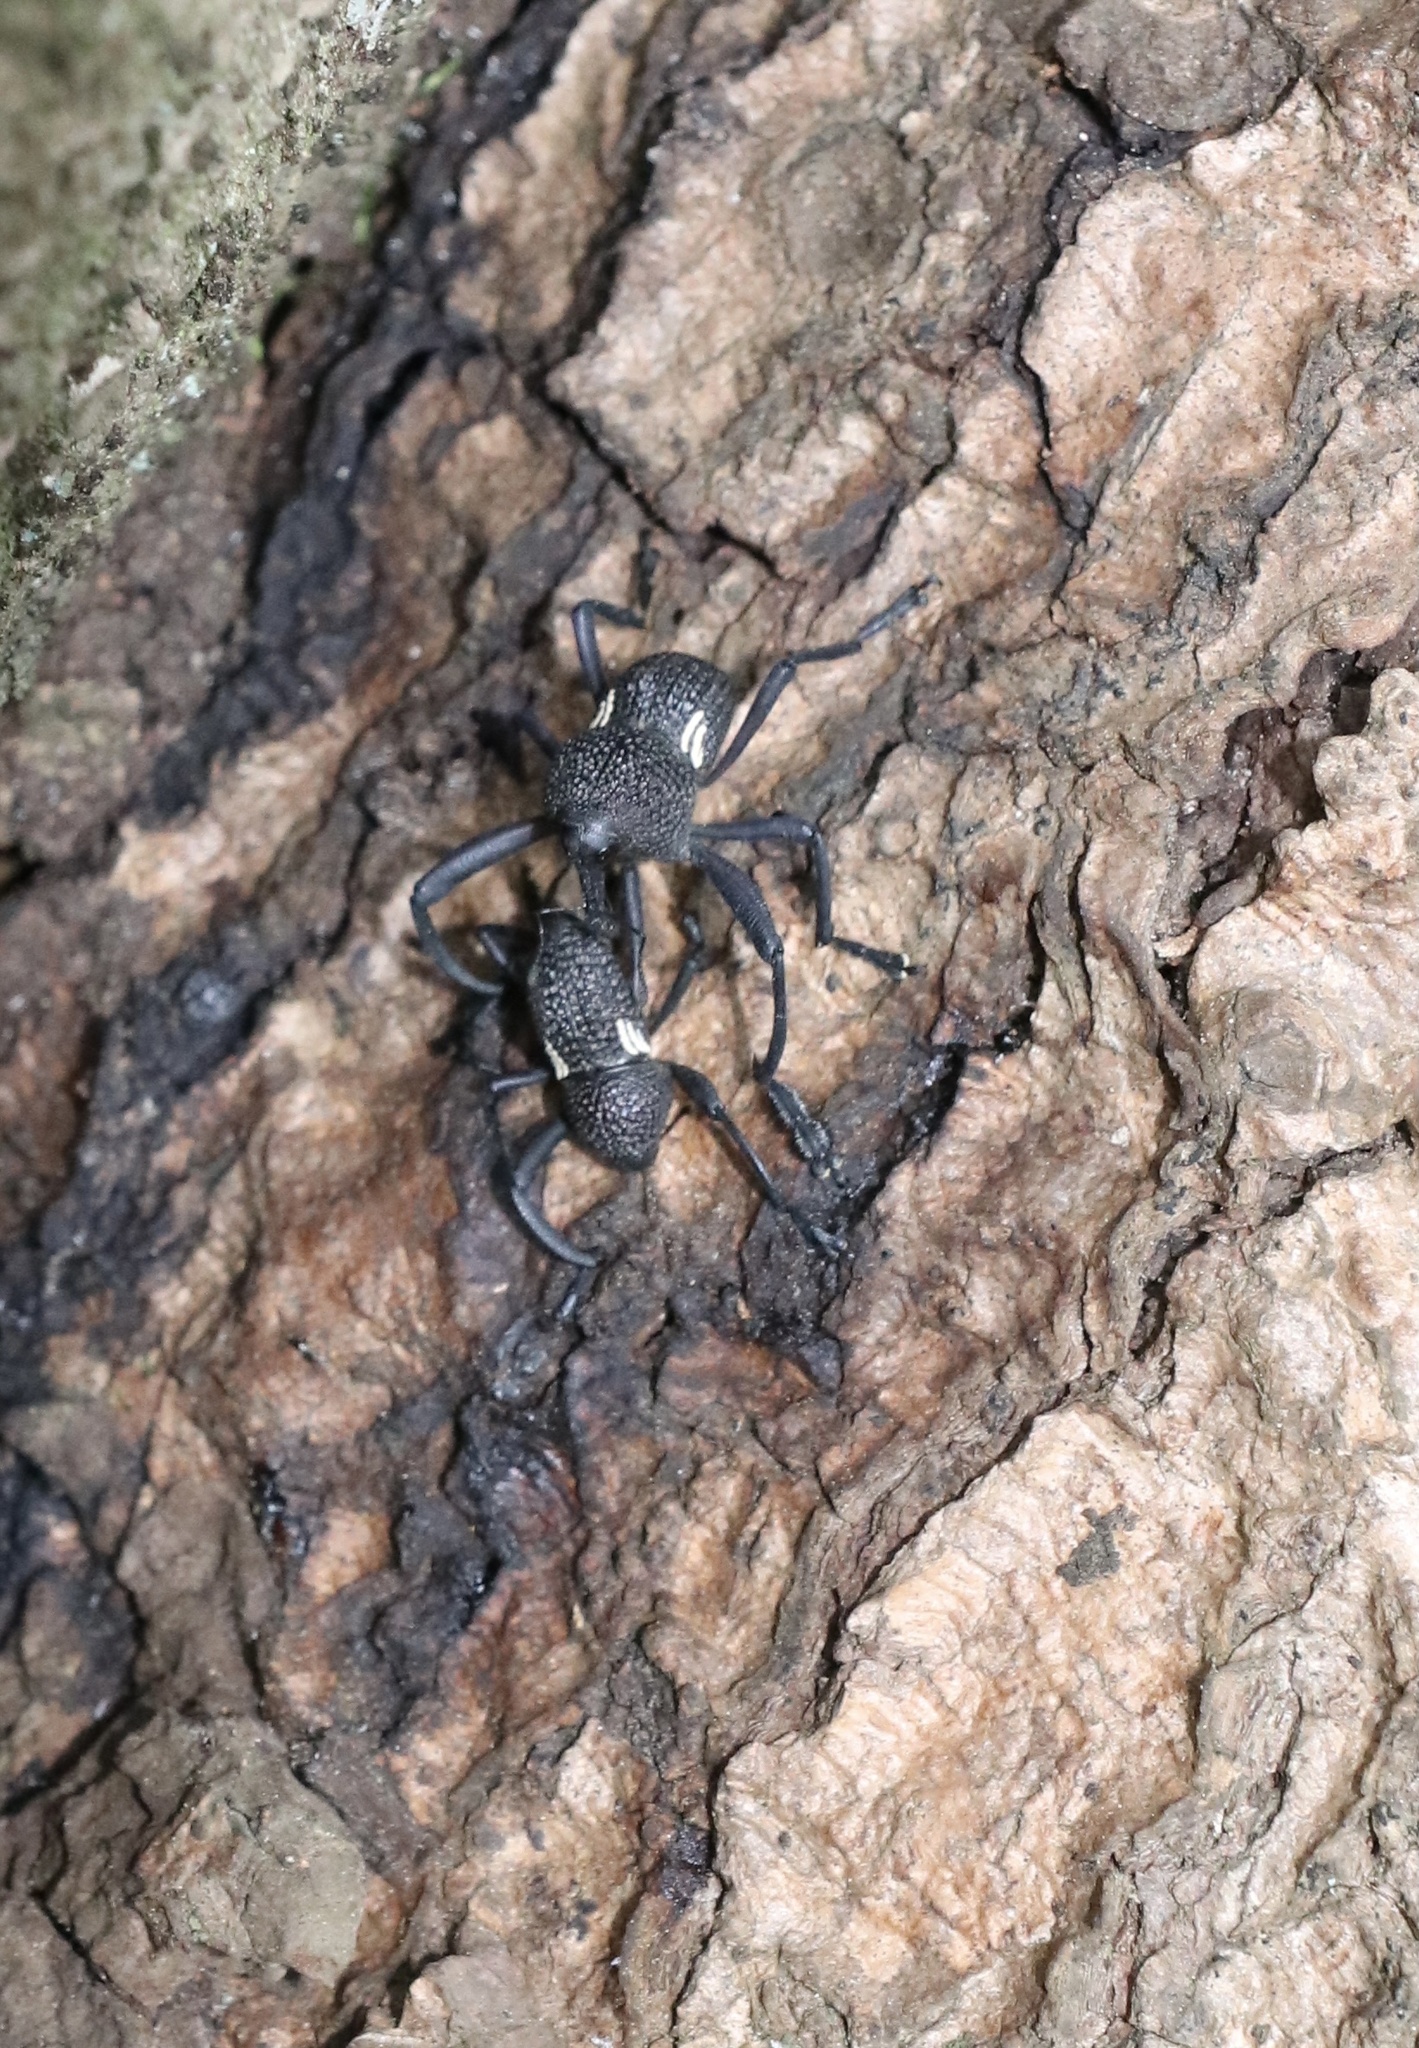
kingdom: Animalia
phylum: Arthropoda
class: Insecta
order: Coleoptera
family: Curculionidae
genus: Rhyephenes
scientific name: Rhyephenes humeralis
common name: Araè±ita chilena del pino
